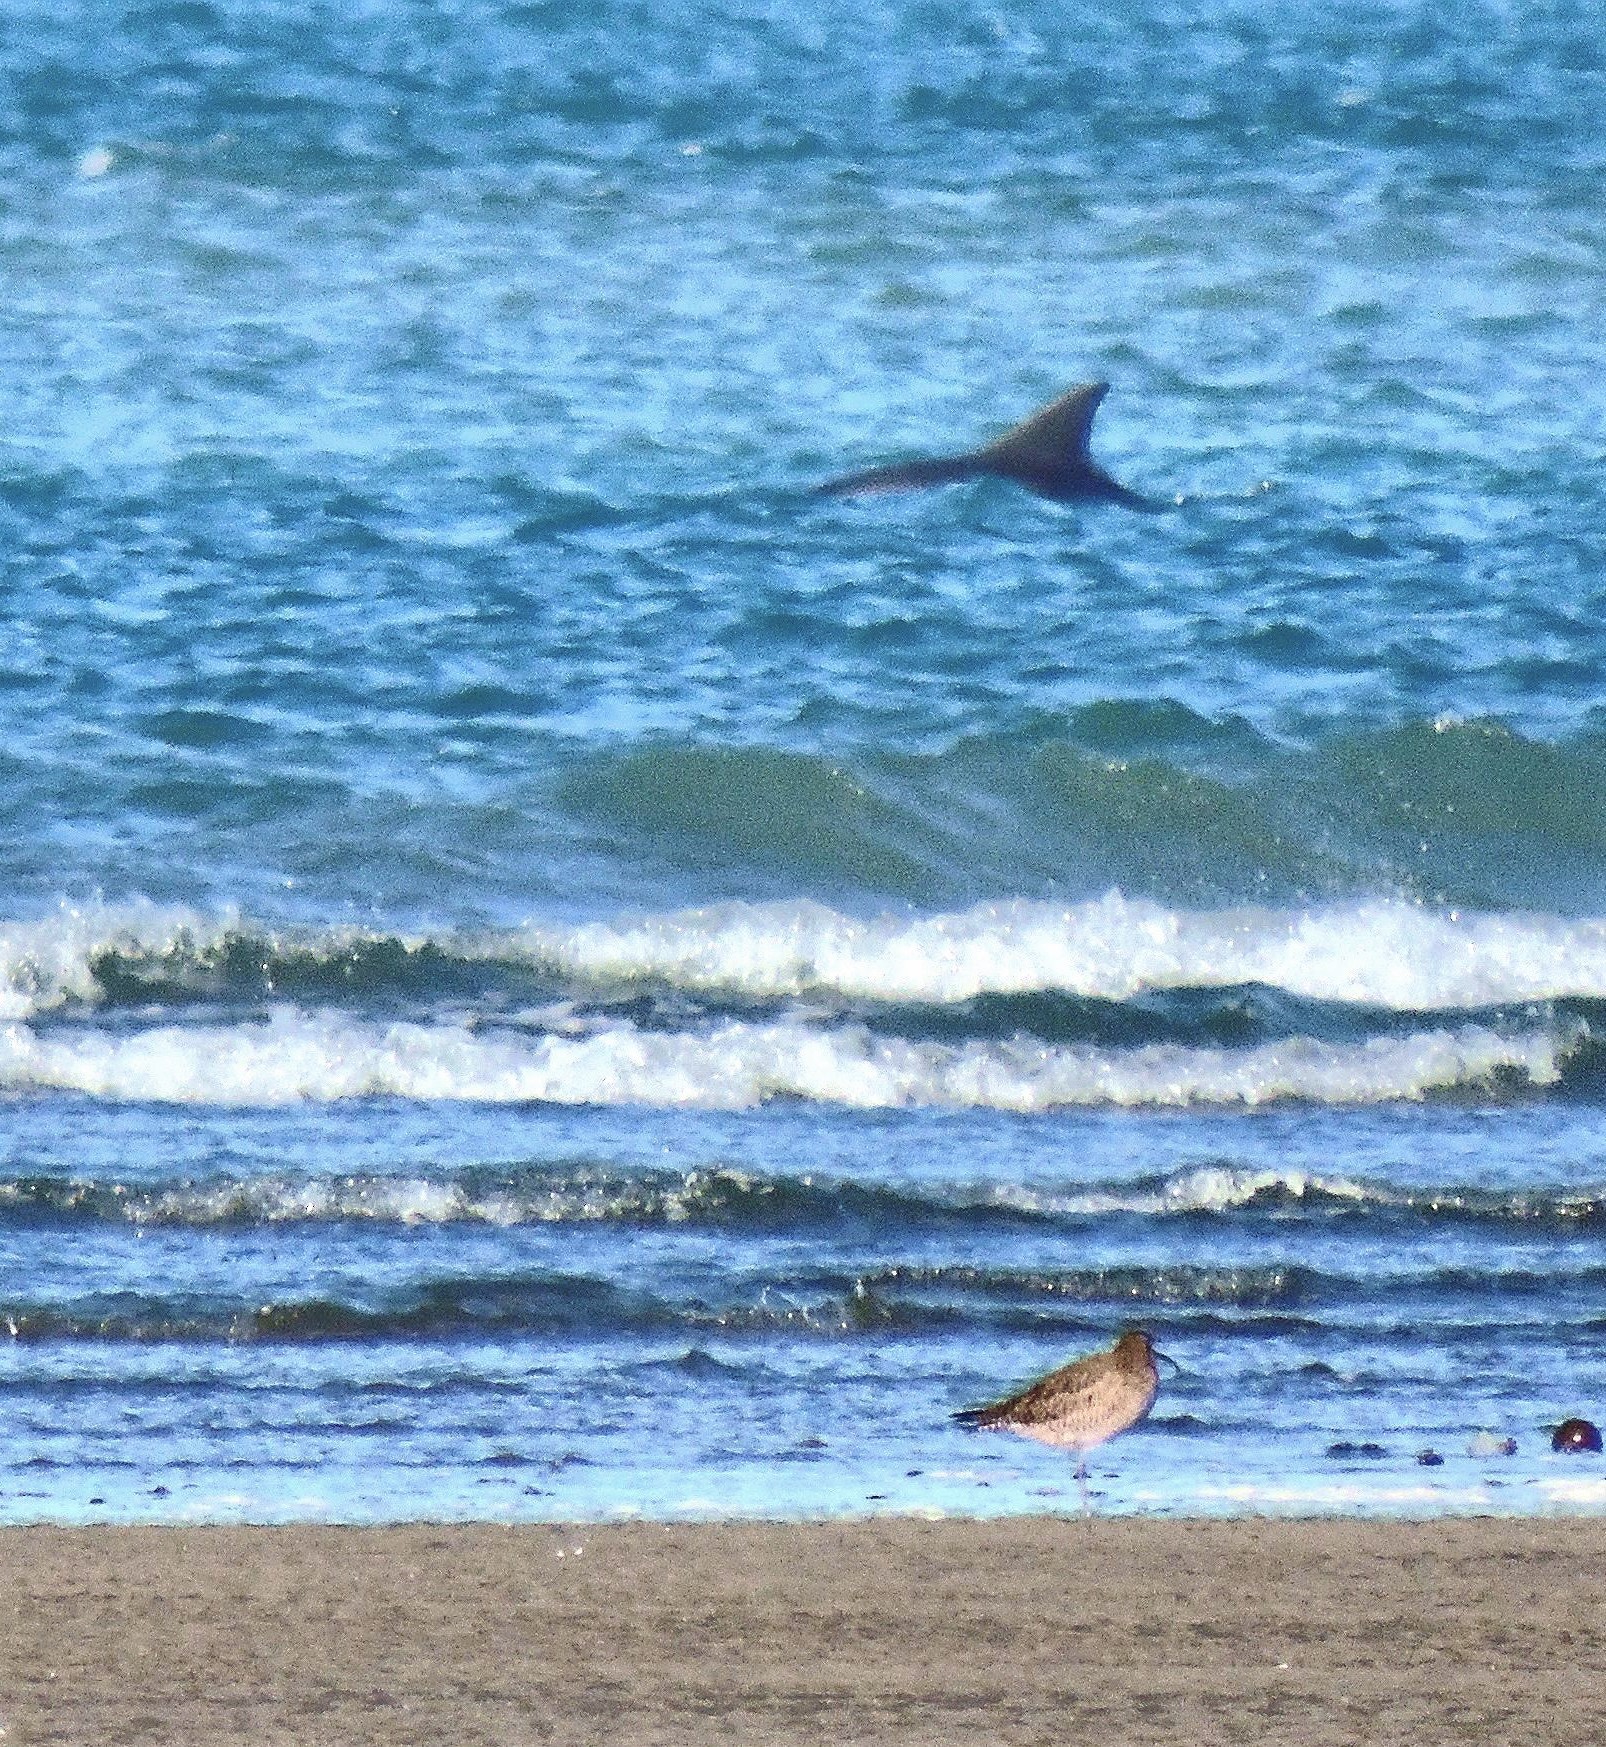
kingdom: Animalia
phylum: Chordata
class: Mammalia
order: Cetacea
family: Delphinidae
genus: Tursiops
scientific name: Tursiops truncatus
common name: Bottlenose dolphin
